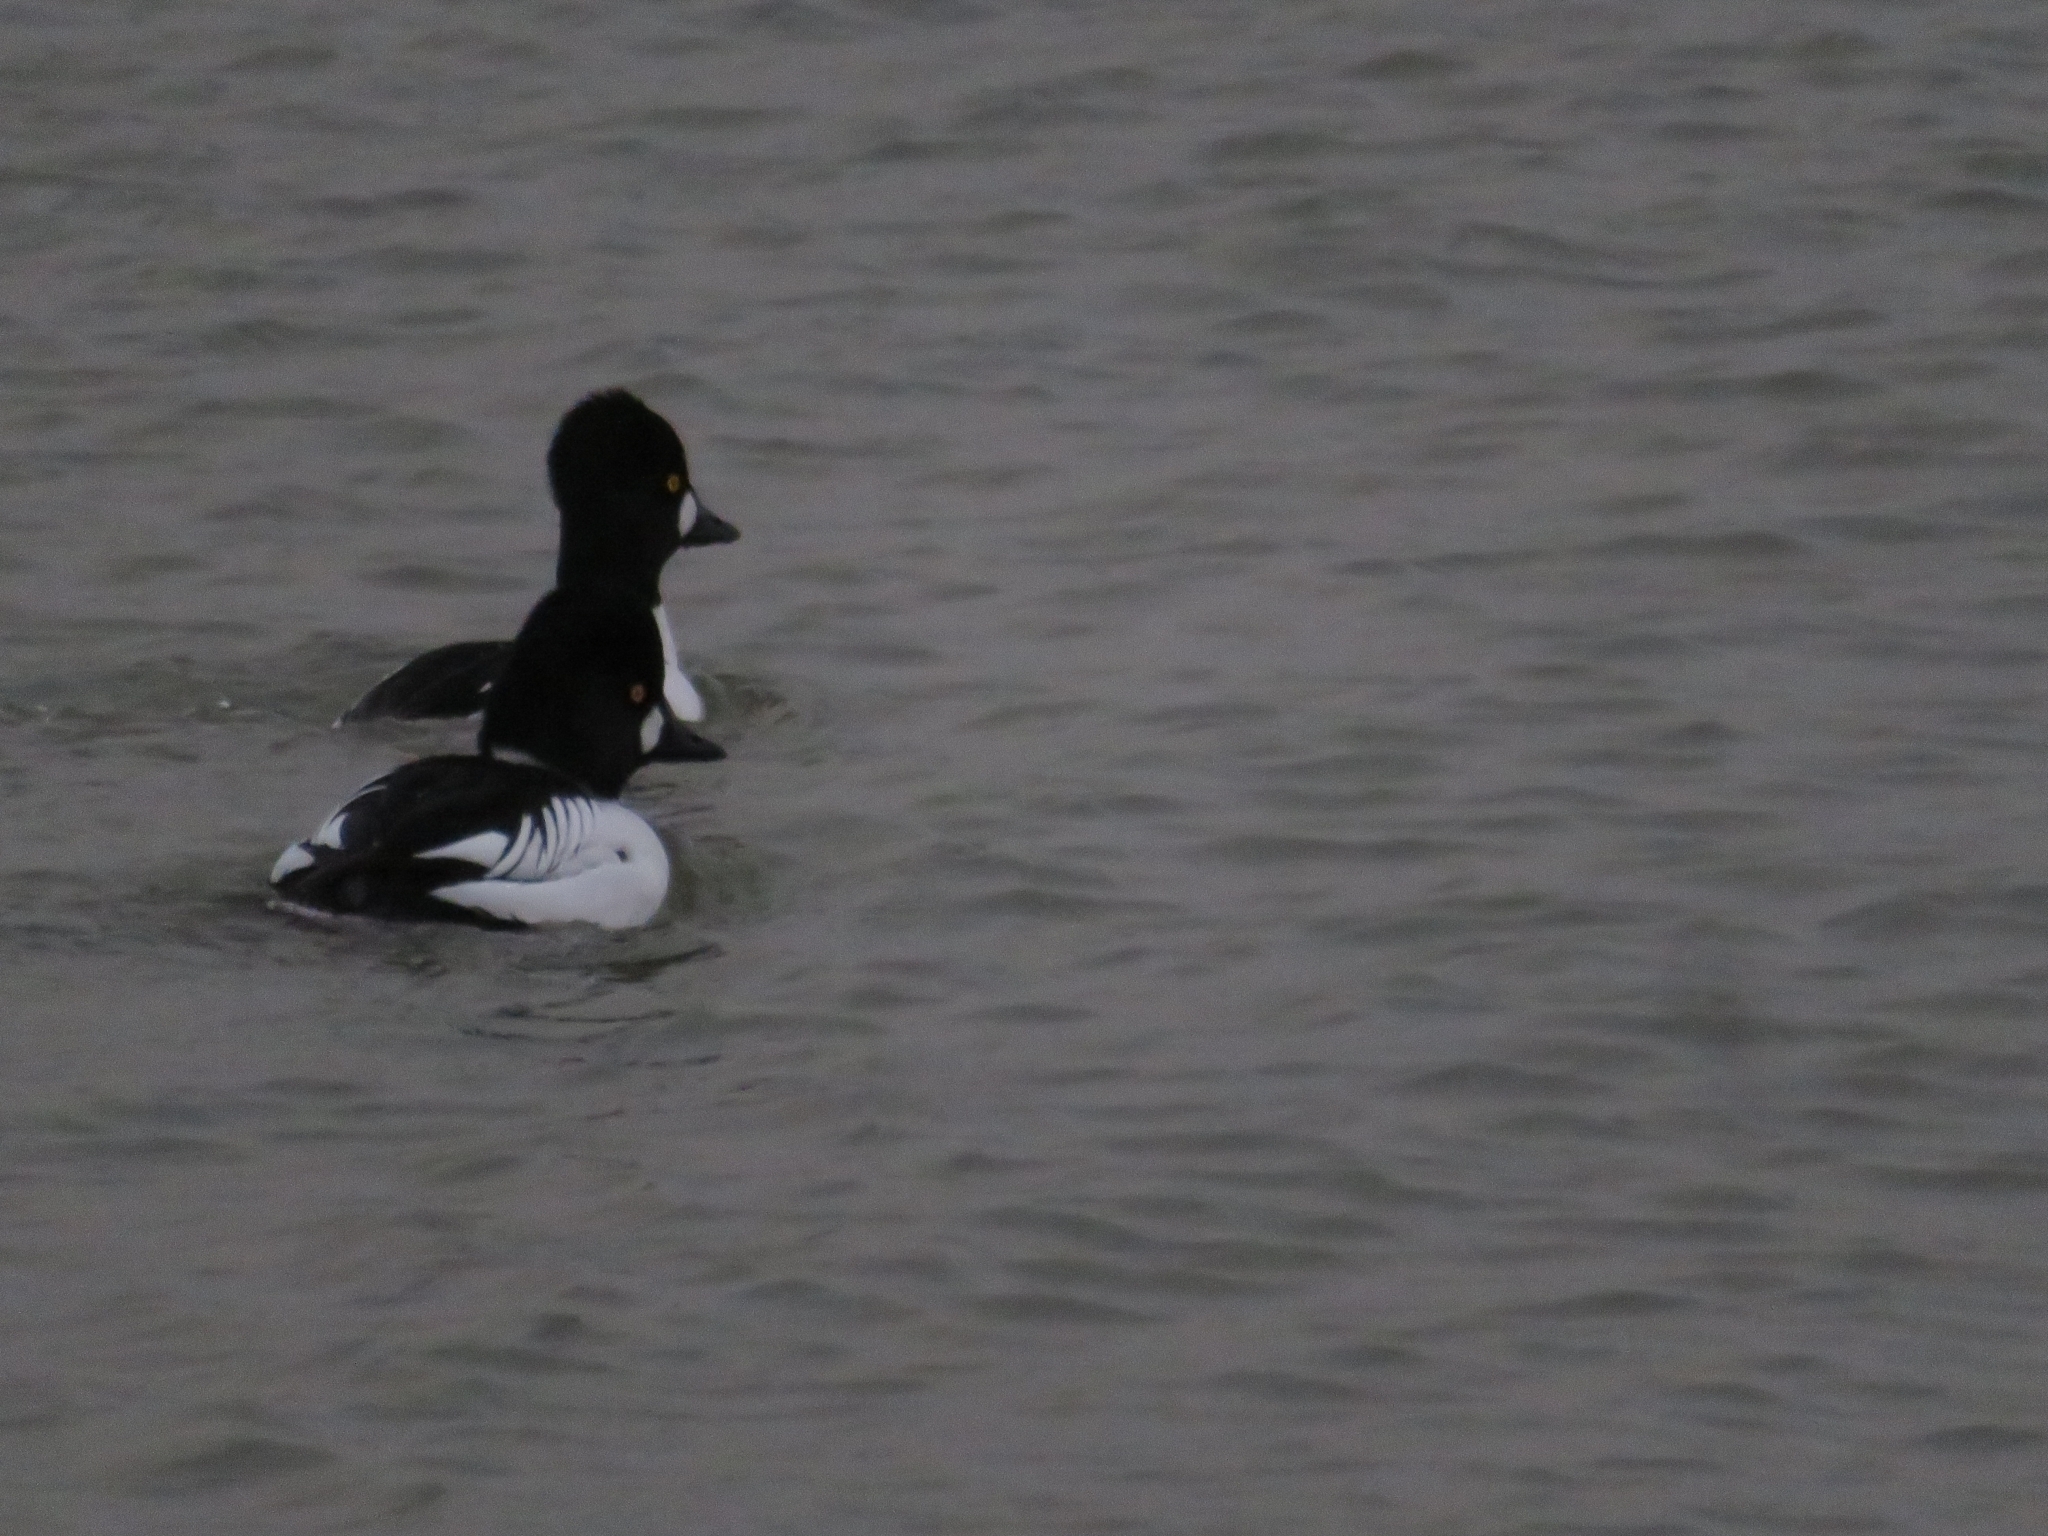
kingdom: Animalia
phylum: Chordata
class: Aves
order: Anseriformes
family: Anatidae
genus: Bucephala
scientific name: Bucephala clangula
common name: Common goldeneye
